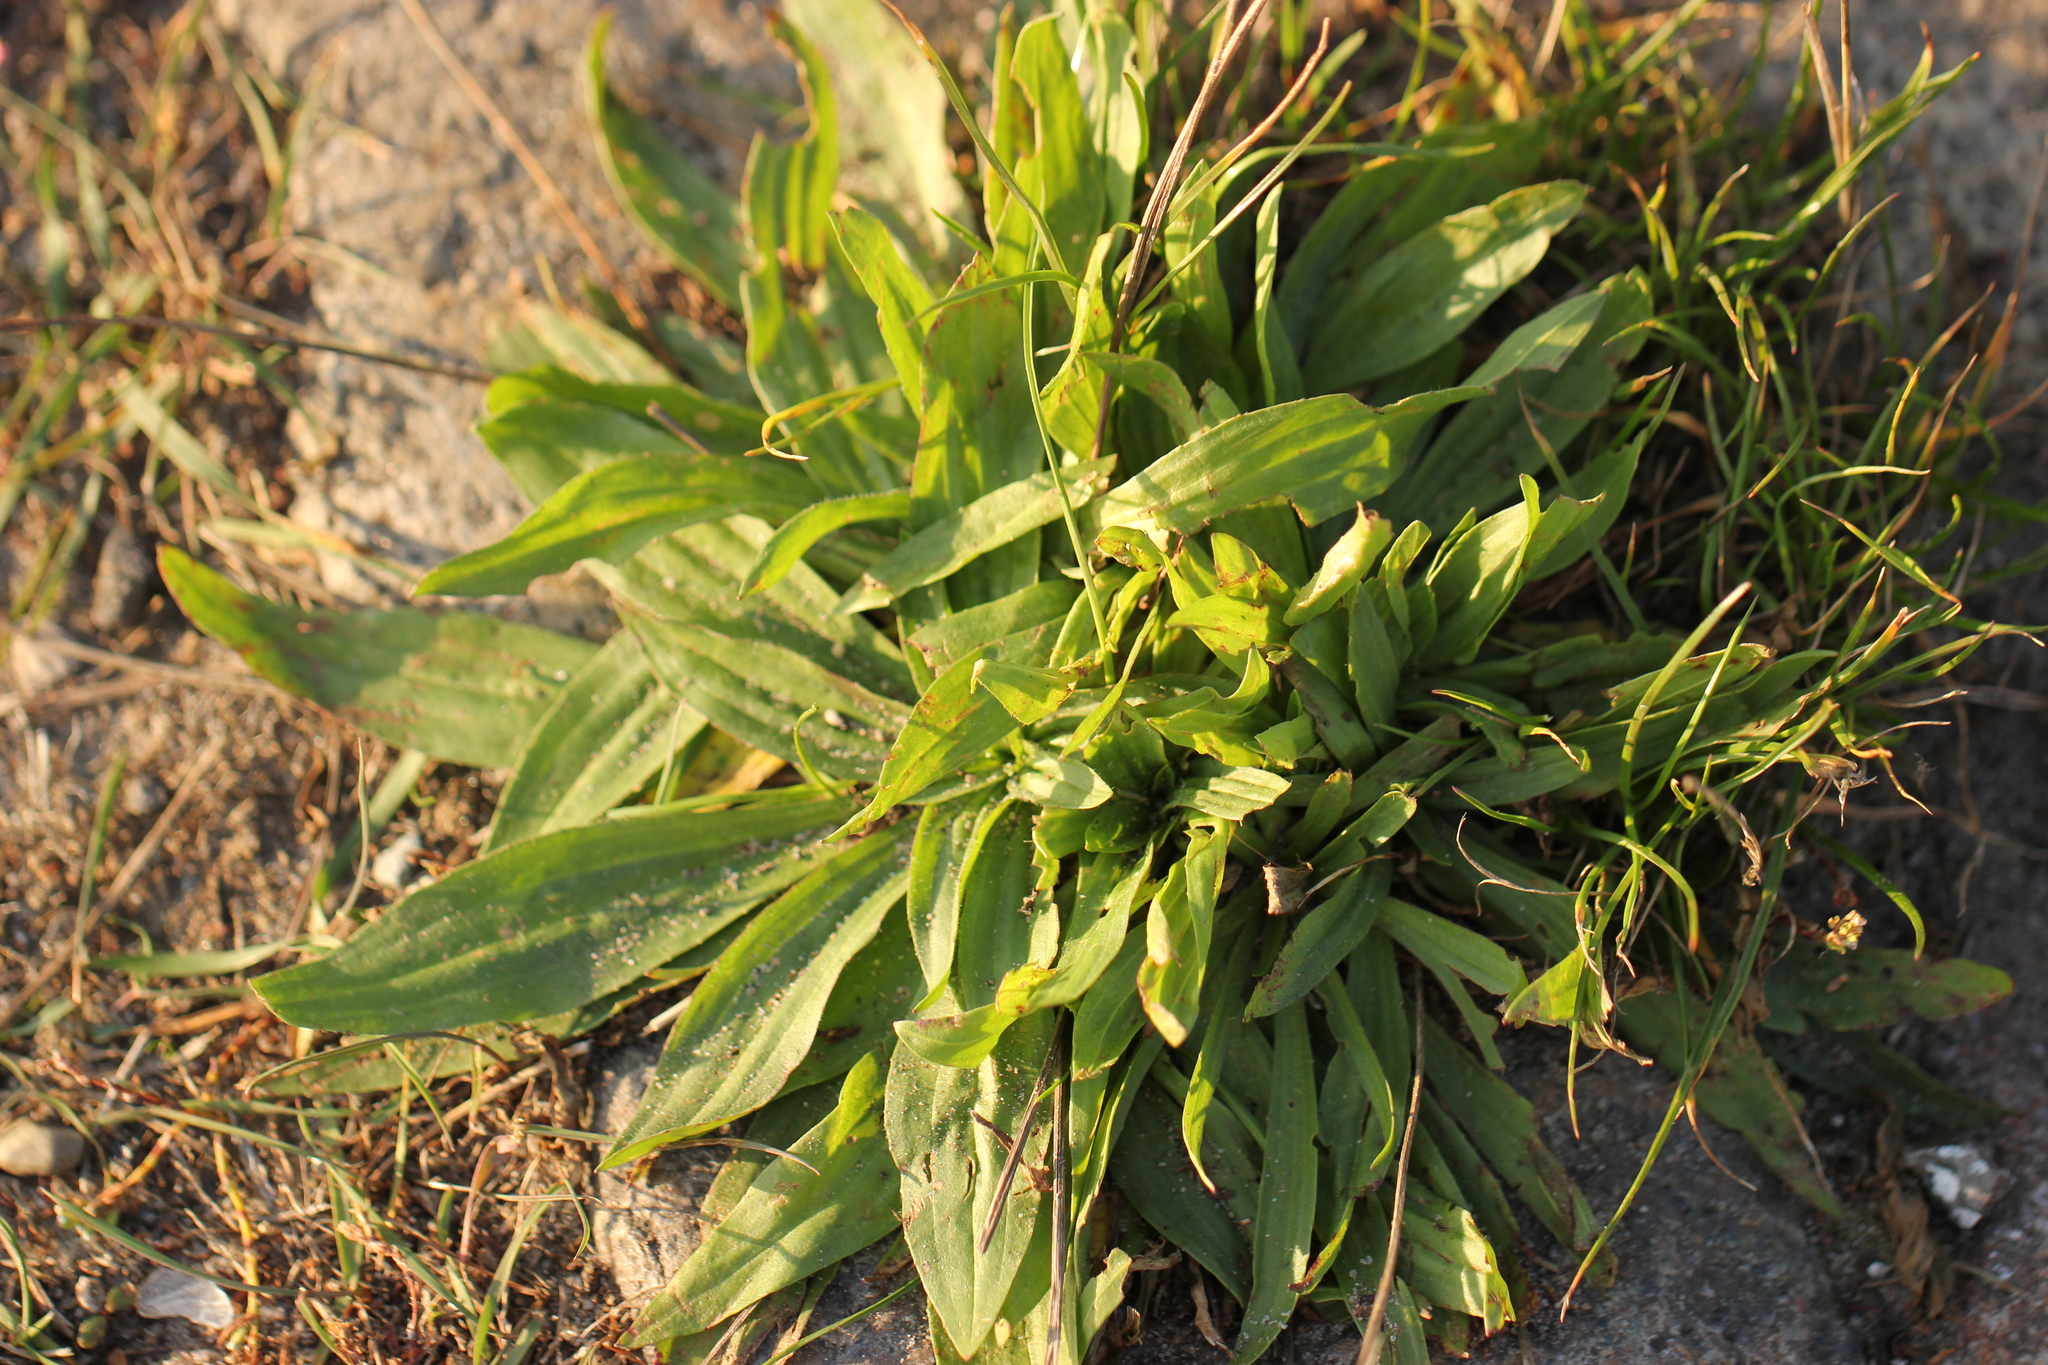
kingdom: Plantae
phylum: Tracheophyta
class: Magnoliopsida
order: Lamiales
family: Plantaginaceae
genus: Plantago
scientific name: Plantago lanceolata
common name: Ribwort plantain
